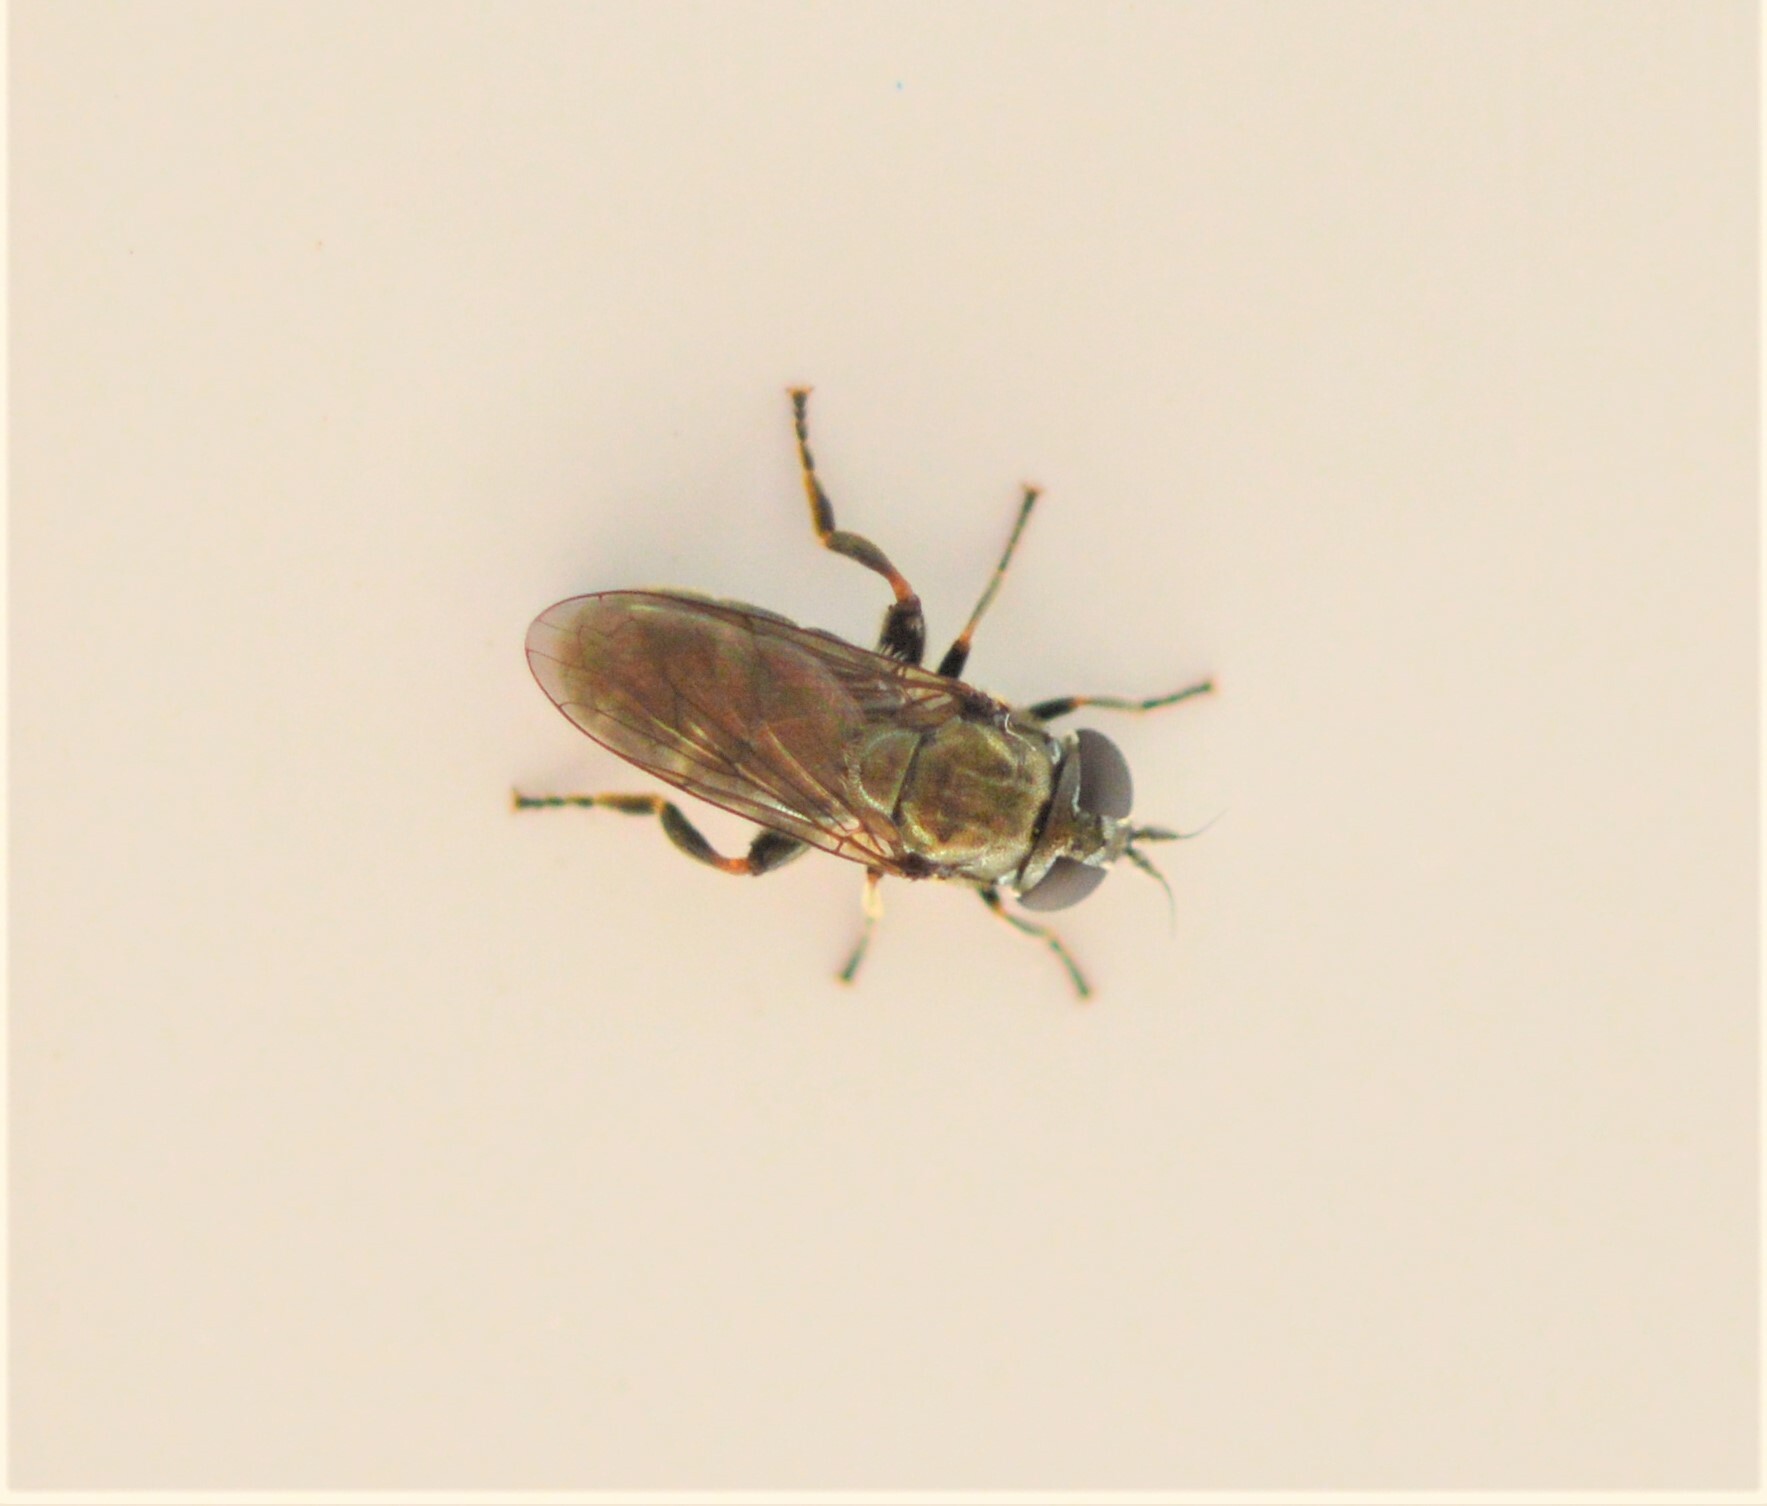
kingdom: Animalia
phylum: Arthropoda
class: Insecta
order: Diptera
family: Syrphidae
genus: Eumerus
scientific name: Eumerus
